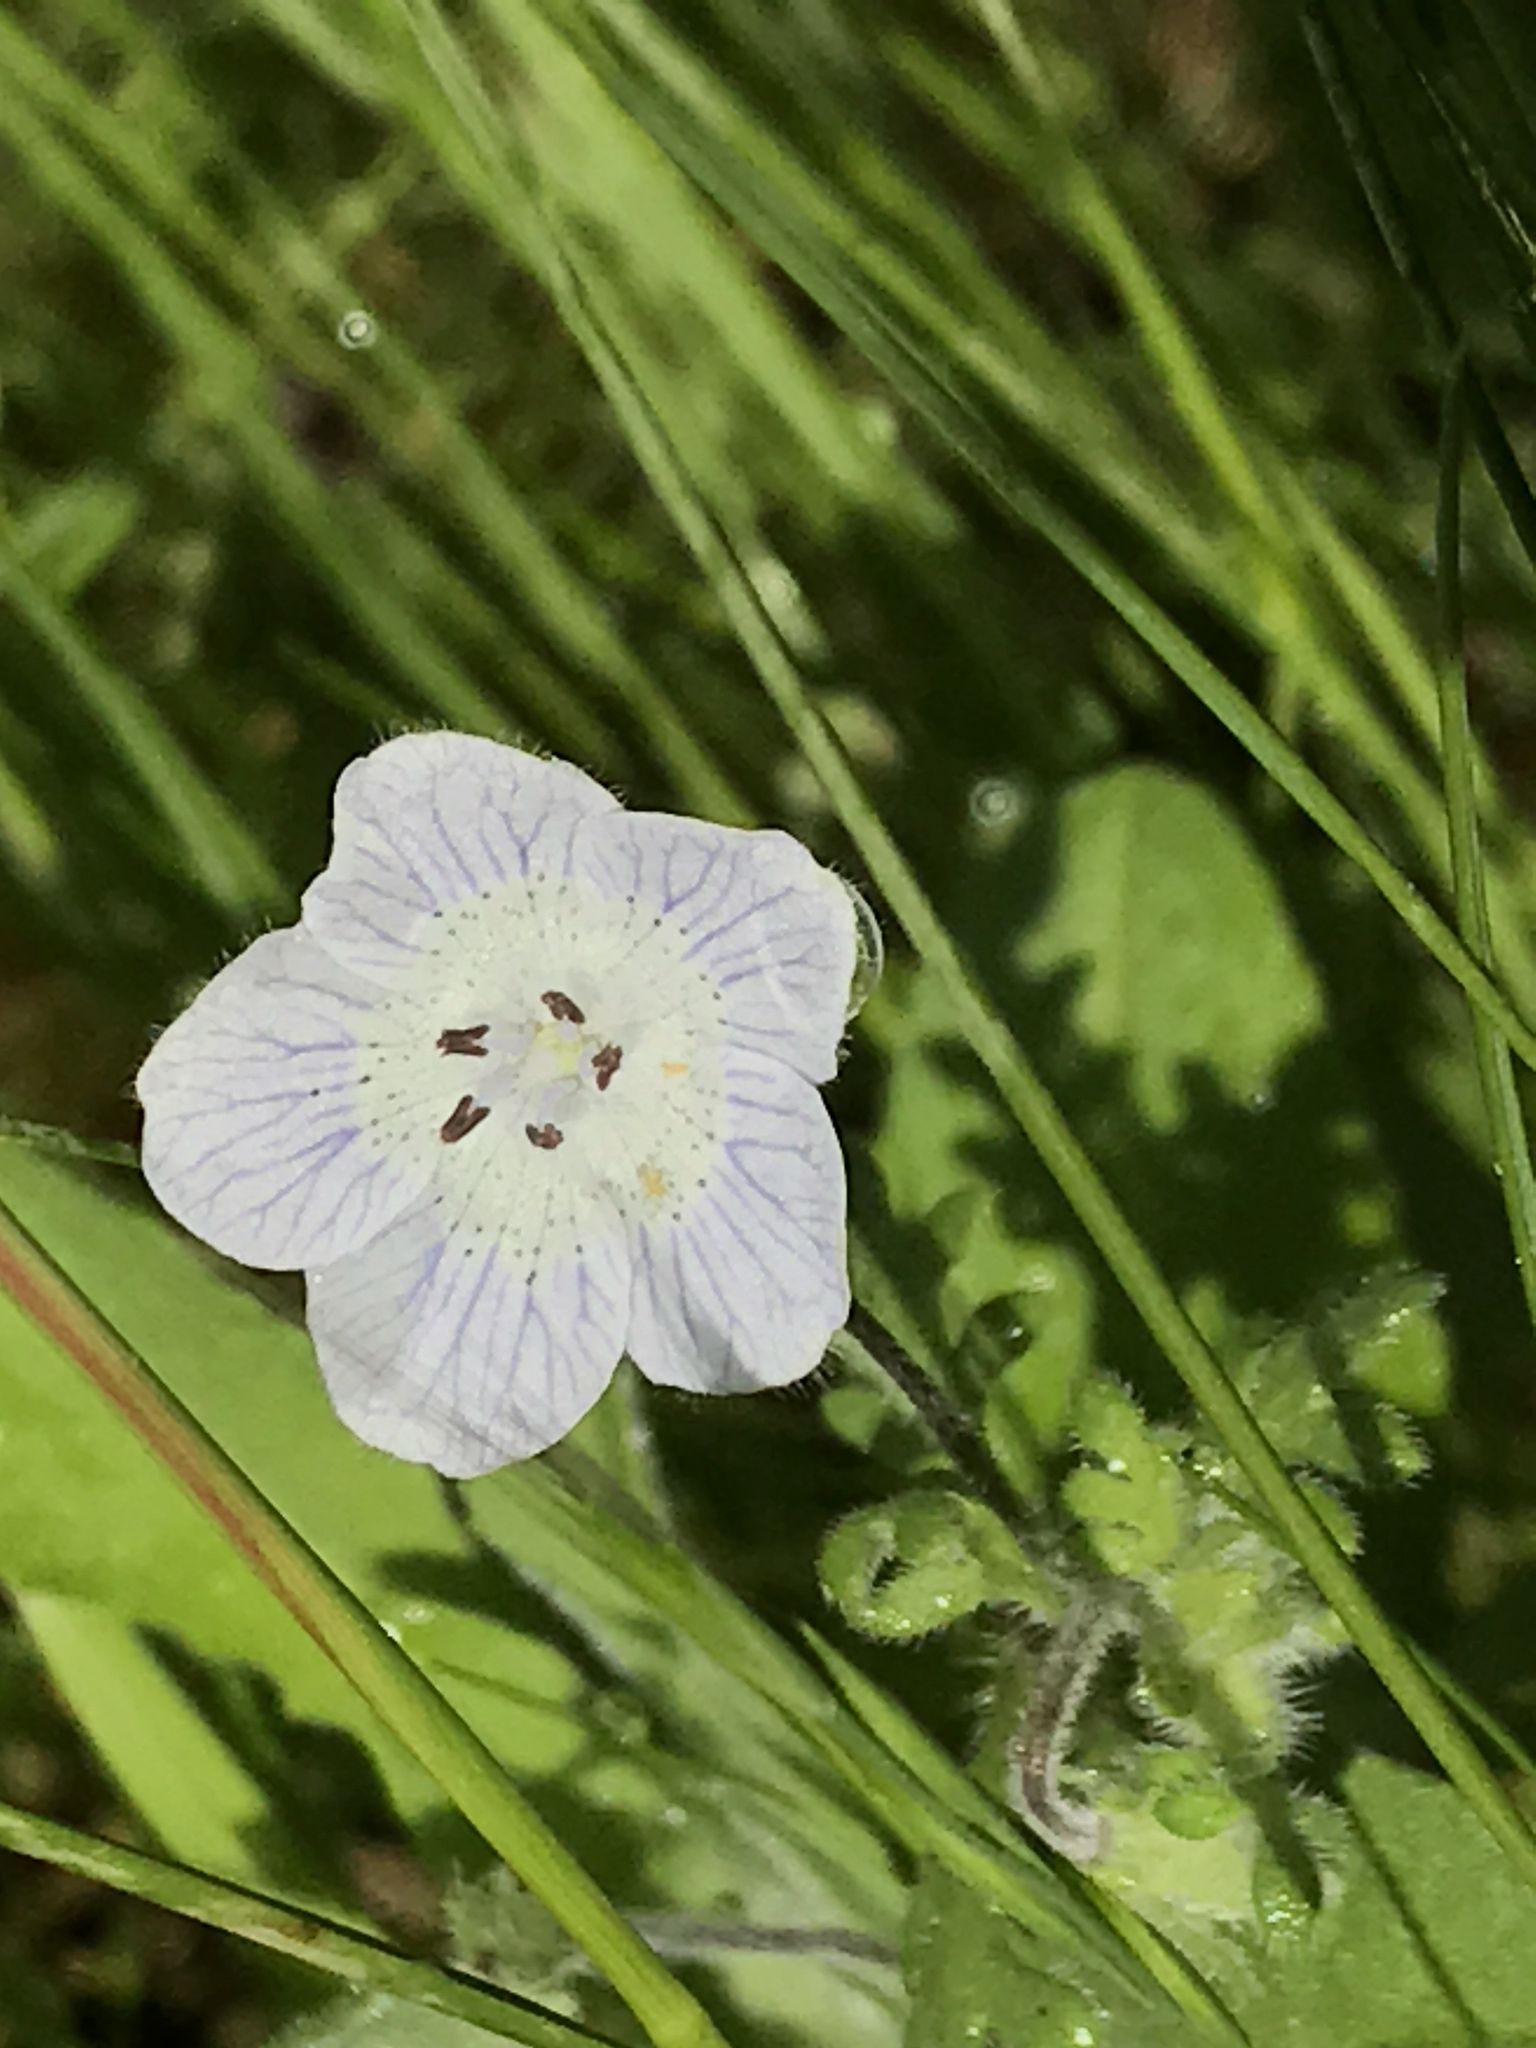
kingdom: Plantae
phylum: Tracheophyta
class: Magnoliopsida
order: Boraginales
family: Hydrophyllaceae
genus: Nemophila
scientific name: Nemophila menziesii
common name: Baby's-blue-eyes
